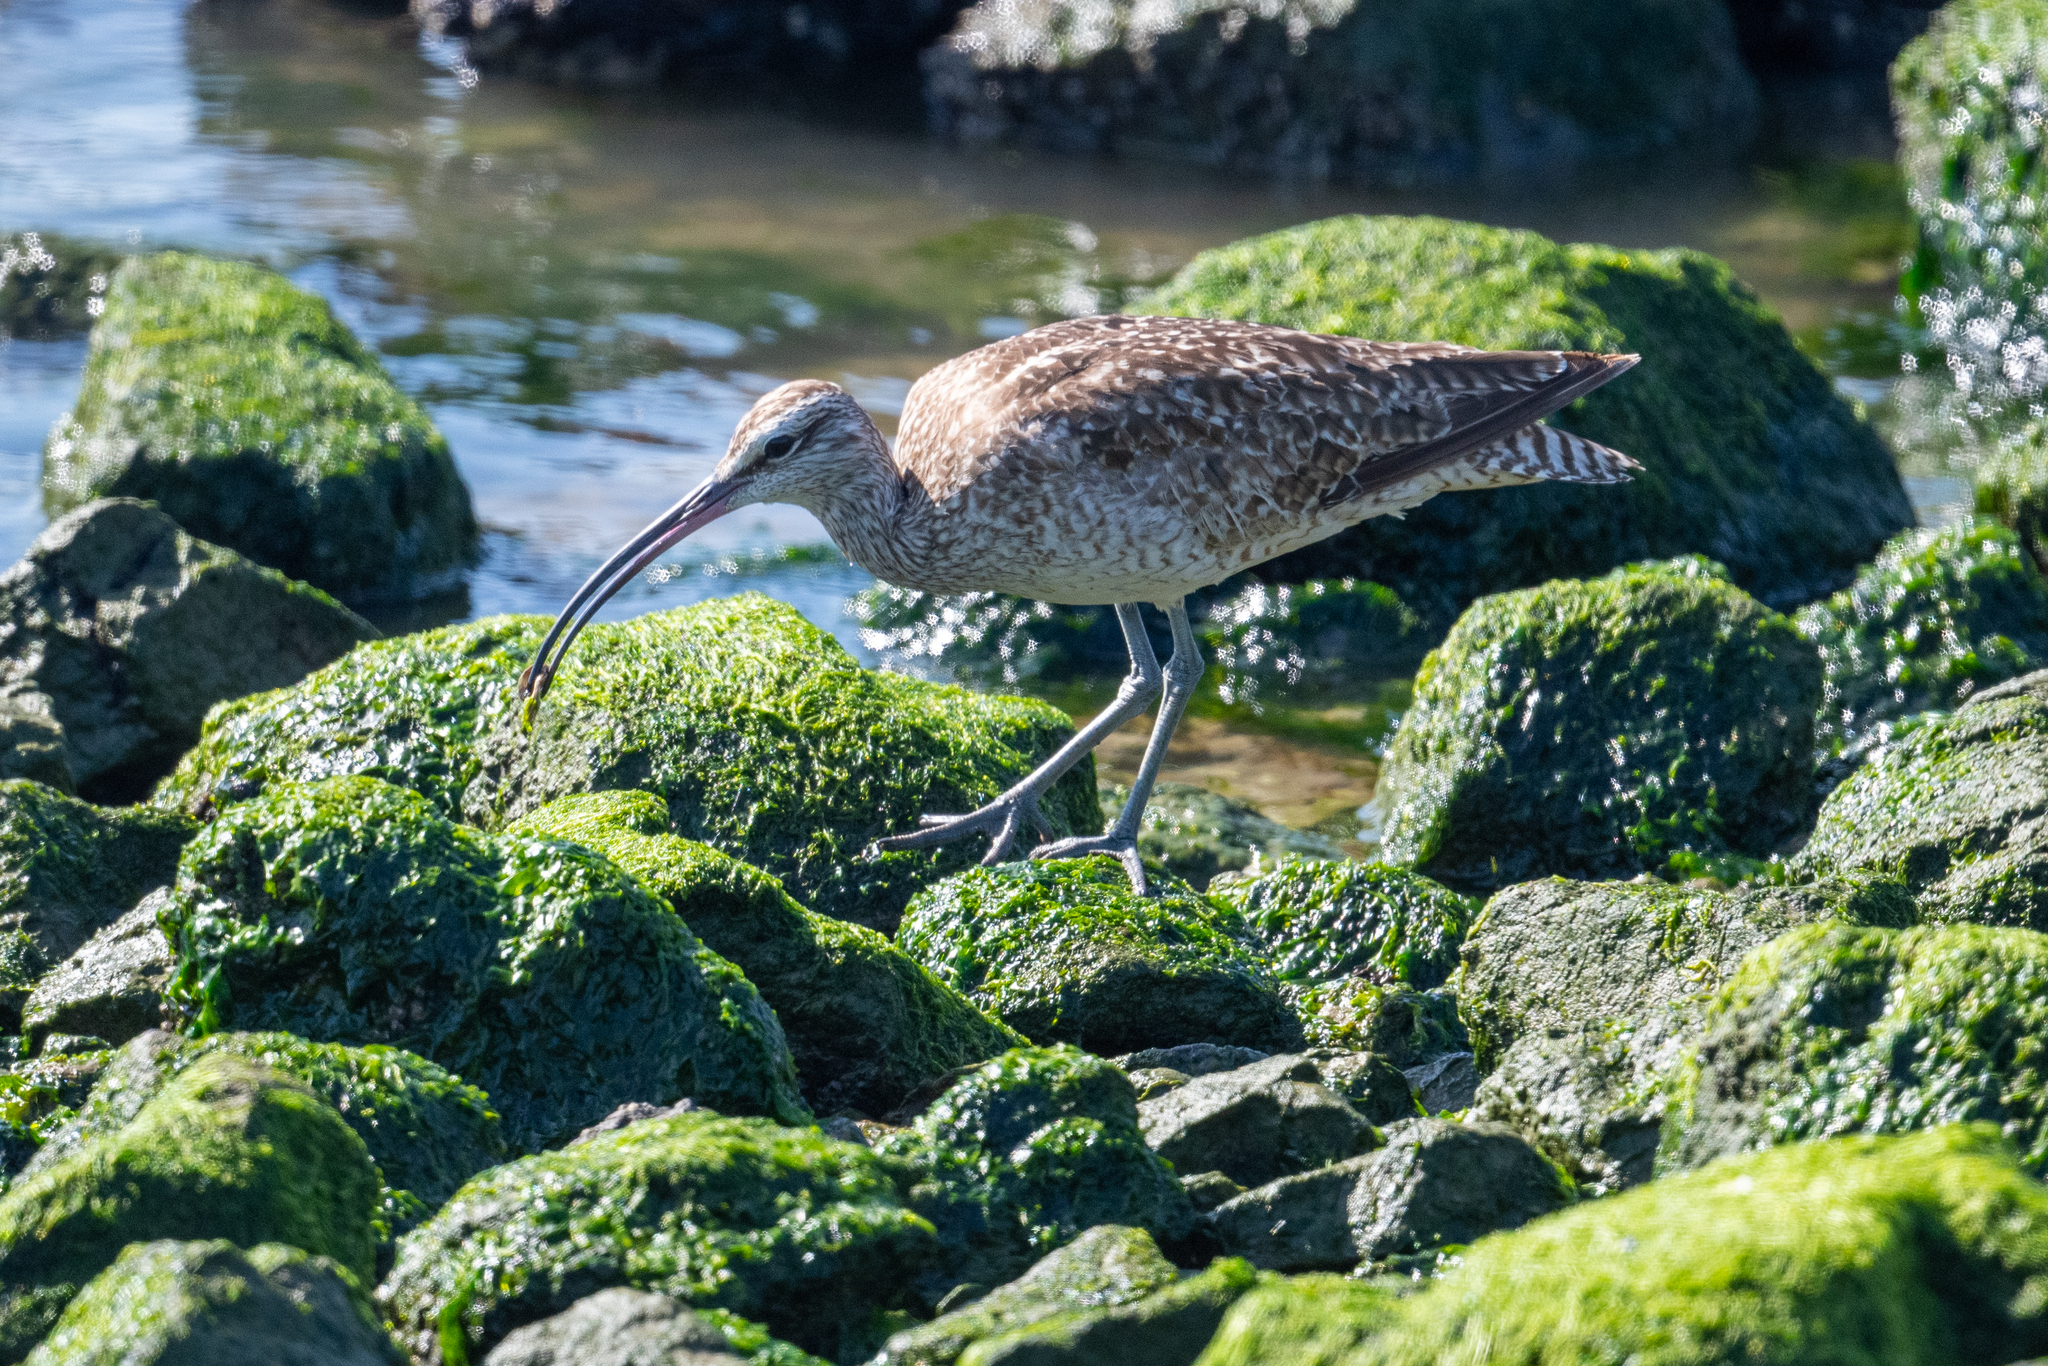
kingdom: Animalia
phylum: Chordata
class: Aves
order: Charadriiformes
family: Scolopacidae
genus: Numenius
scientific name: Numenius phaeopus
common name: Whimbrel
